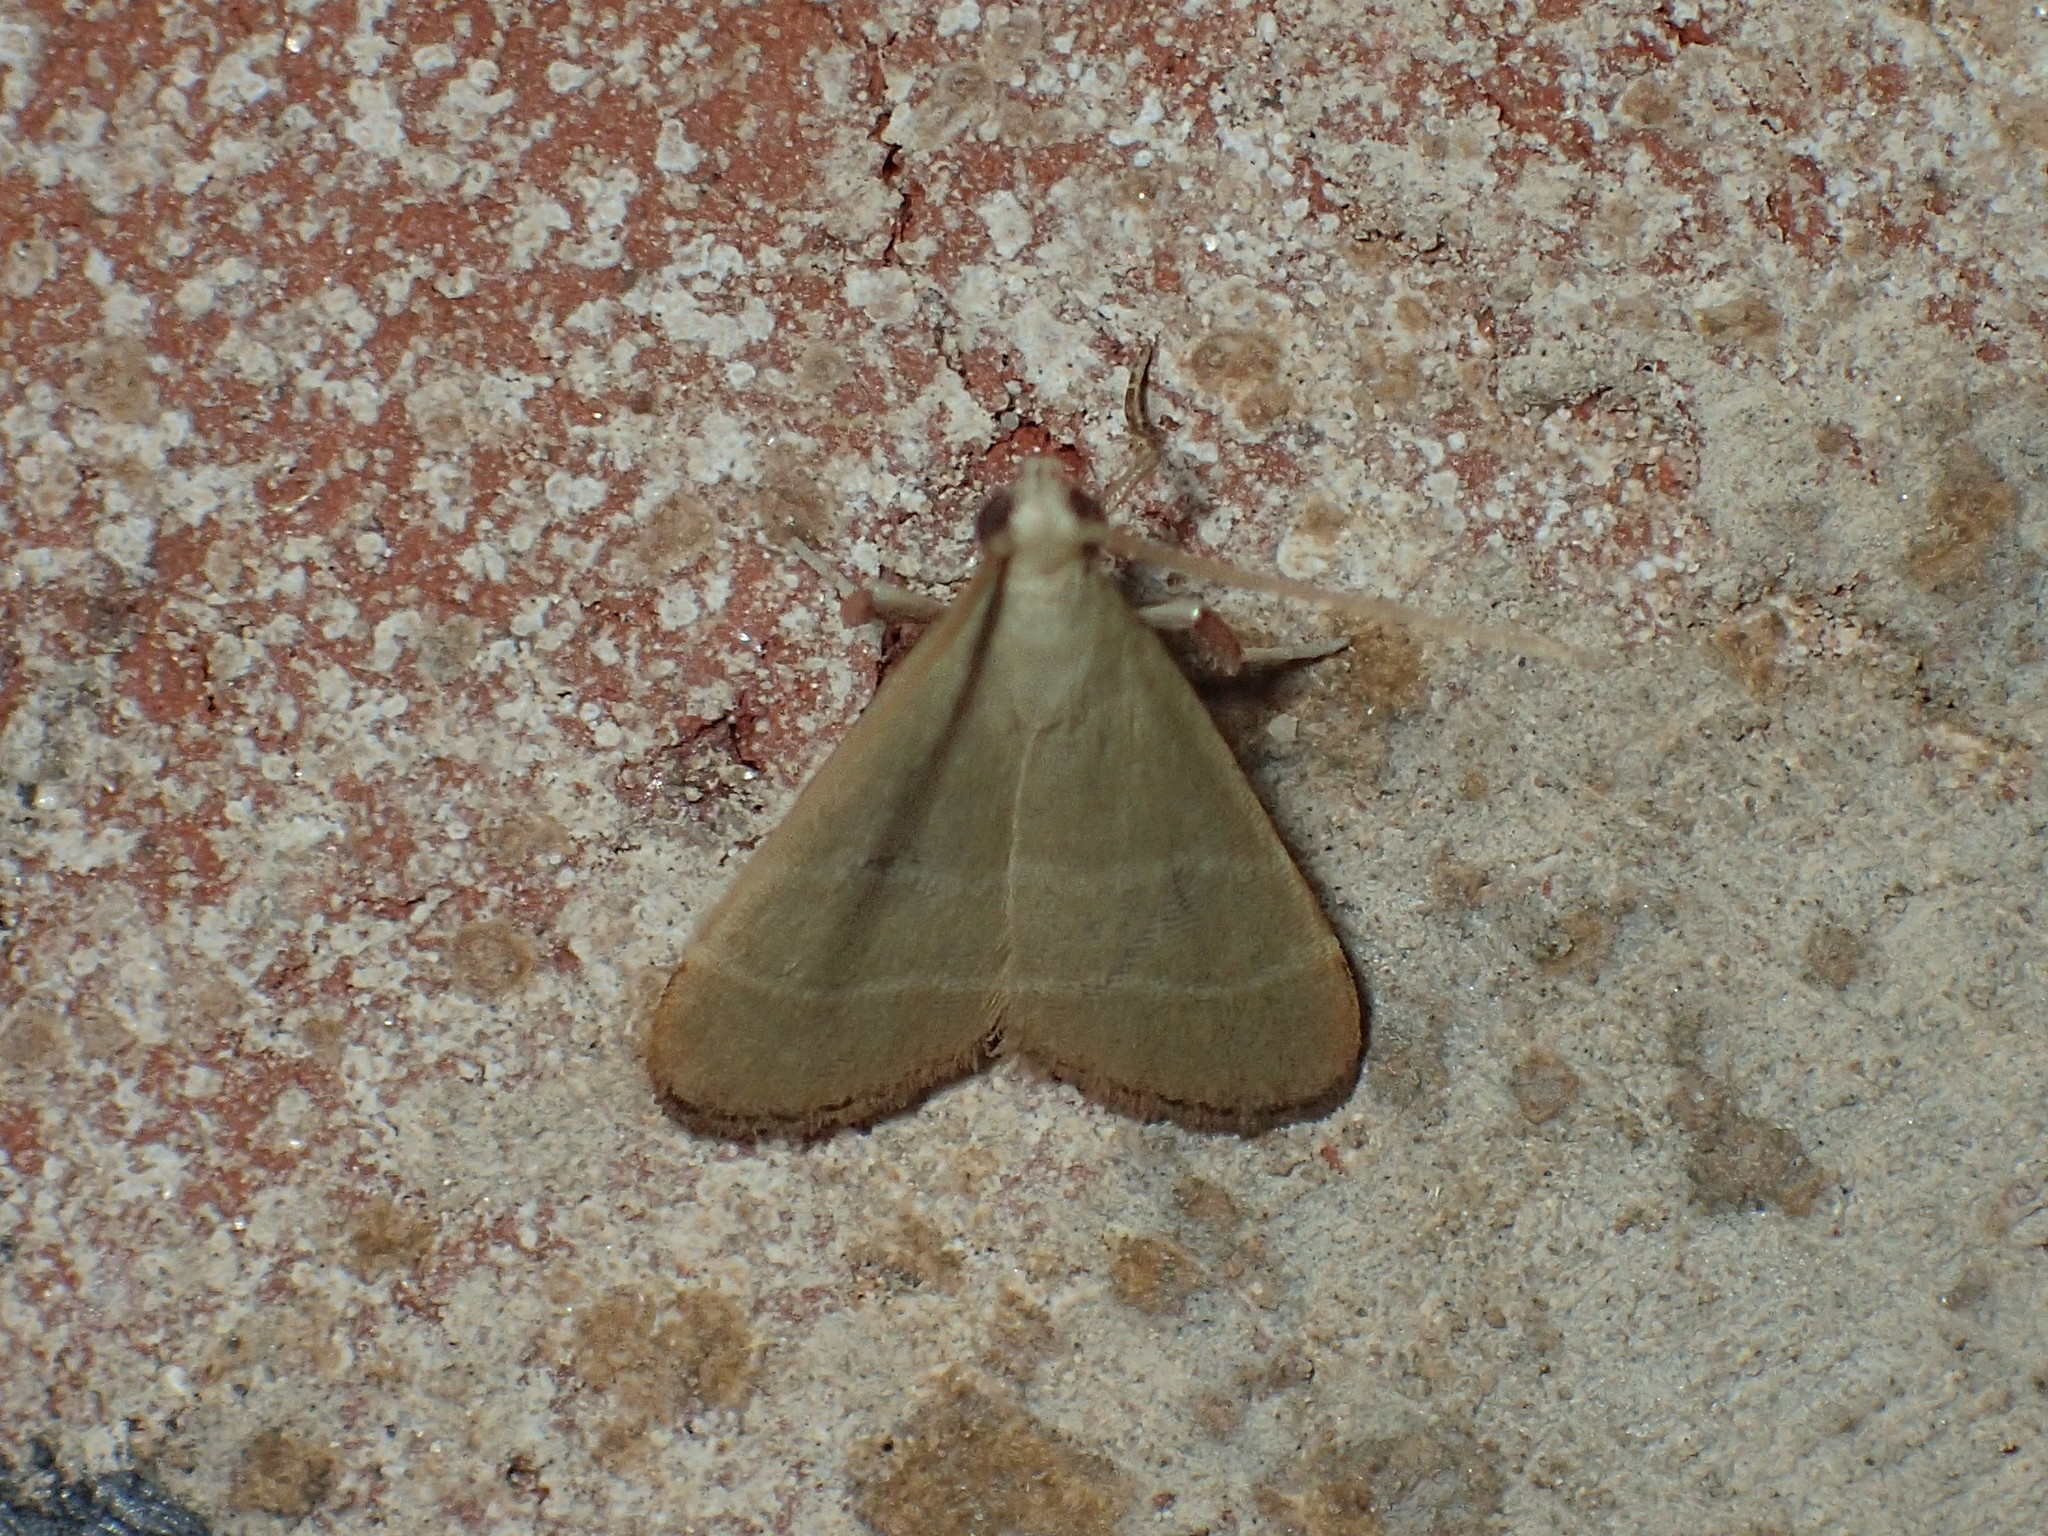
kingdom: Animalia
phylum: Arthropoda
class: Insecta
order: Lepidoptera
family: Pyralidae
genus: Arta
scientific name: Arta olivalis
